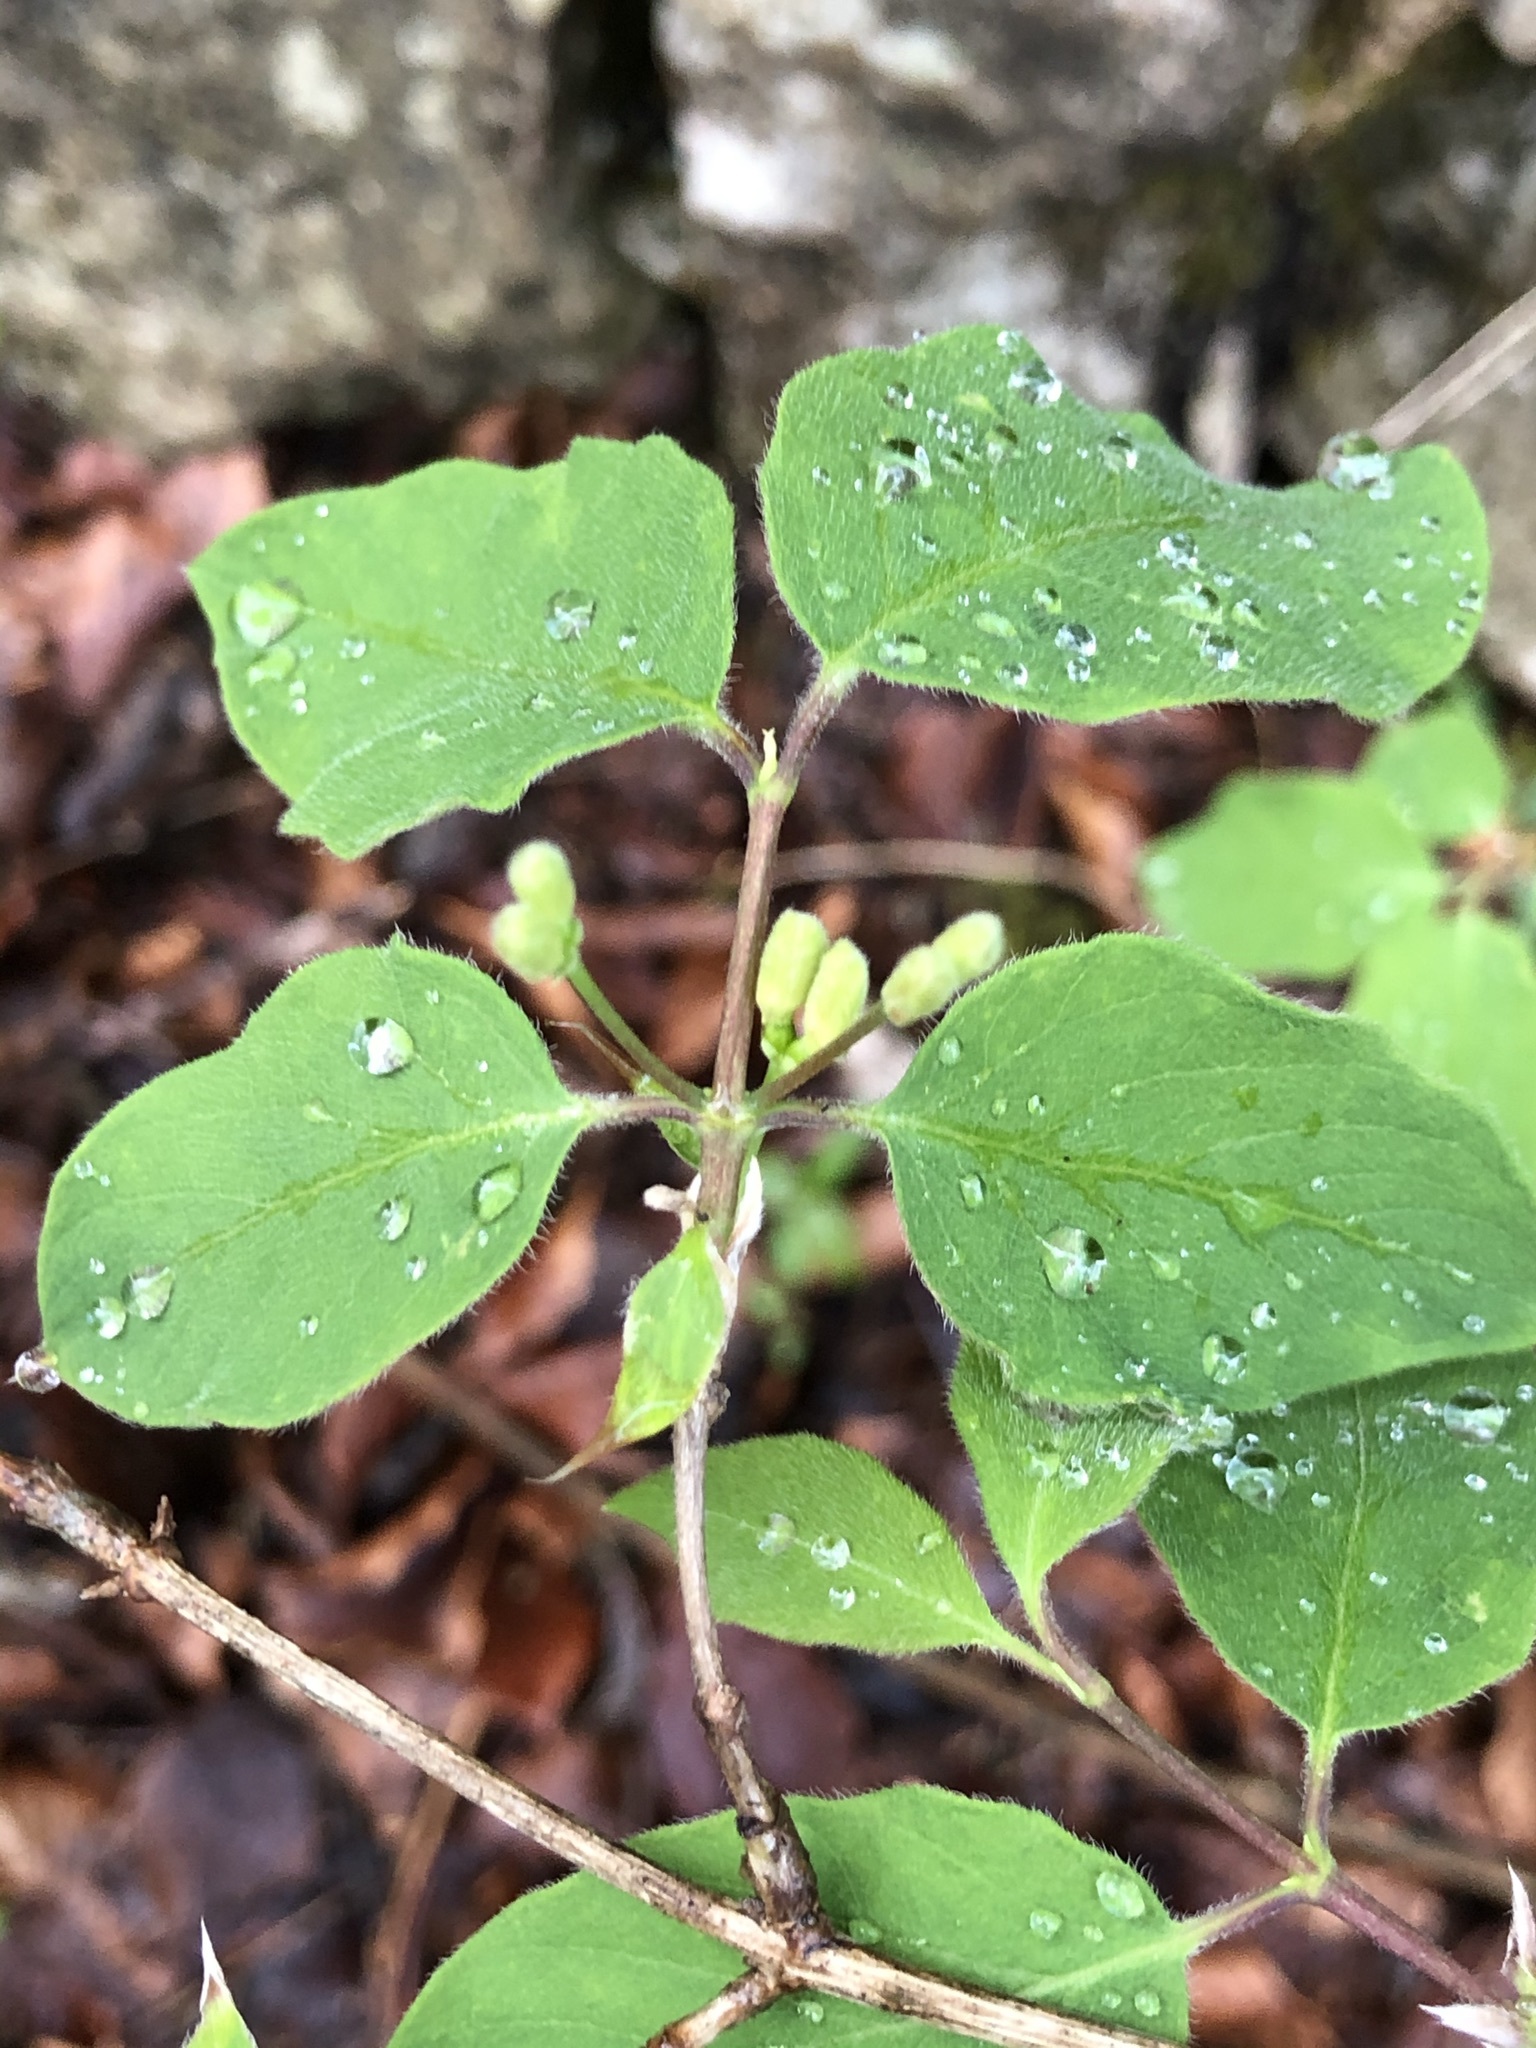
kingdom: Plantae
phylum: Tracheophyta
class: Magnoliopsida
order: Dipsacales
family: Caprifoliaceae
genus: Lonicera
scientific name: Lonicera xylosteum
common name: Fly honeysuckle
